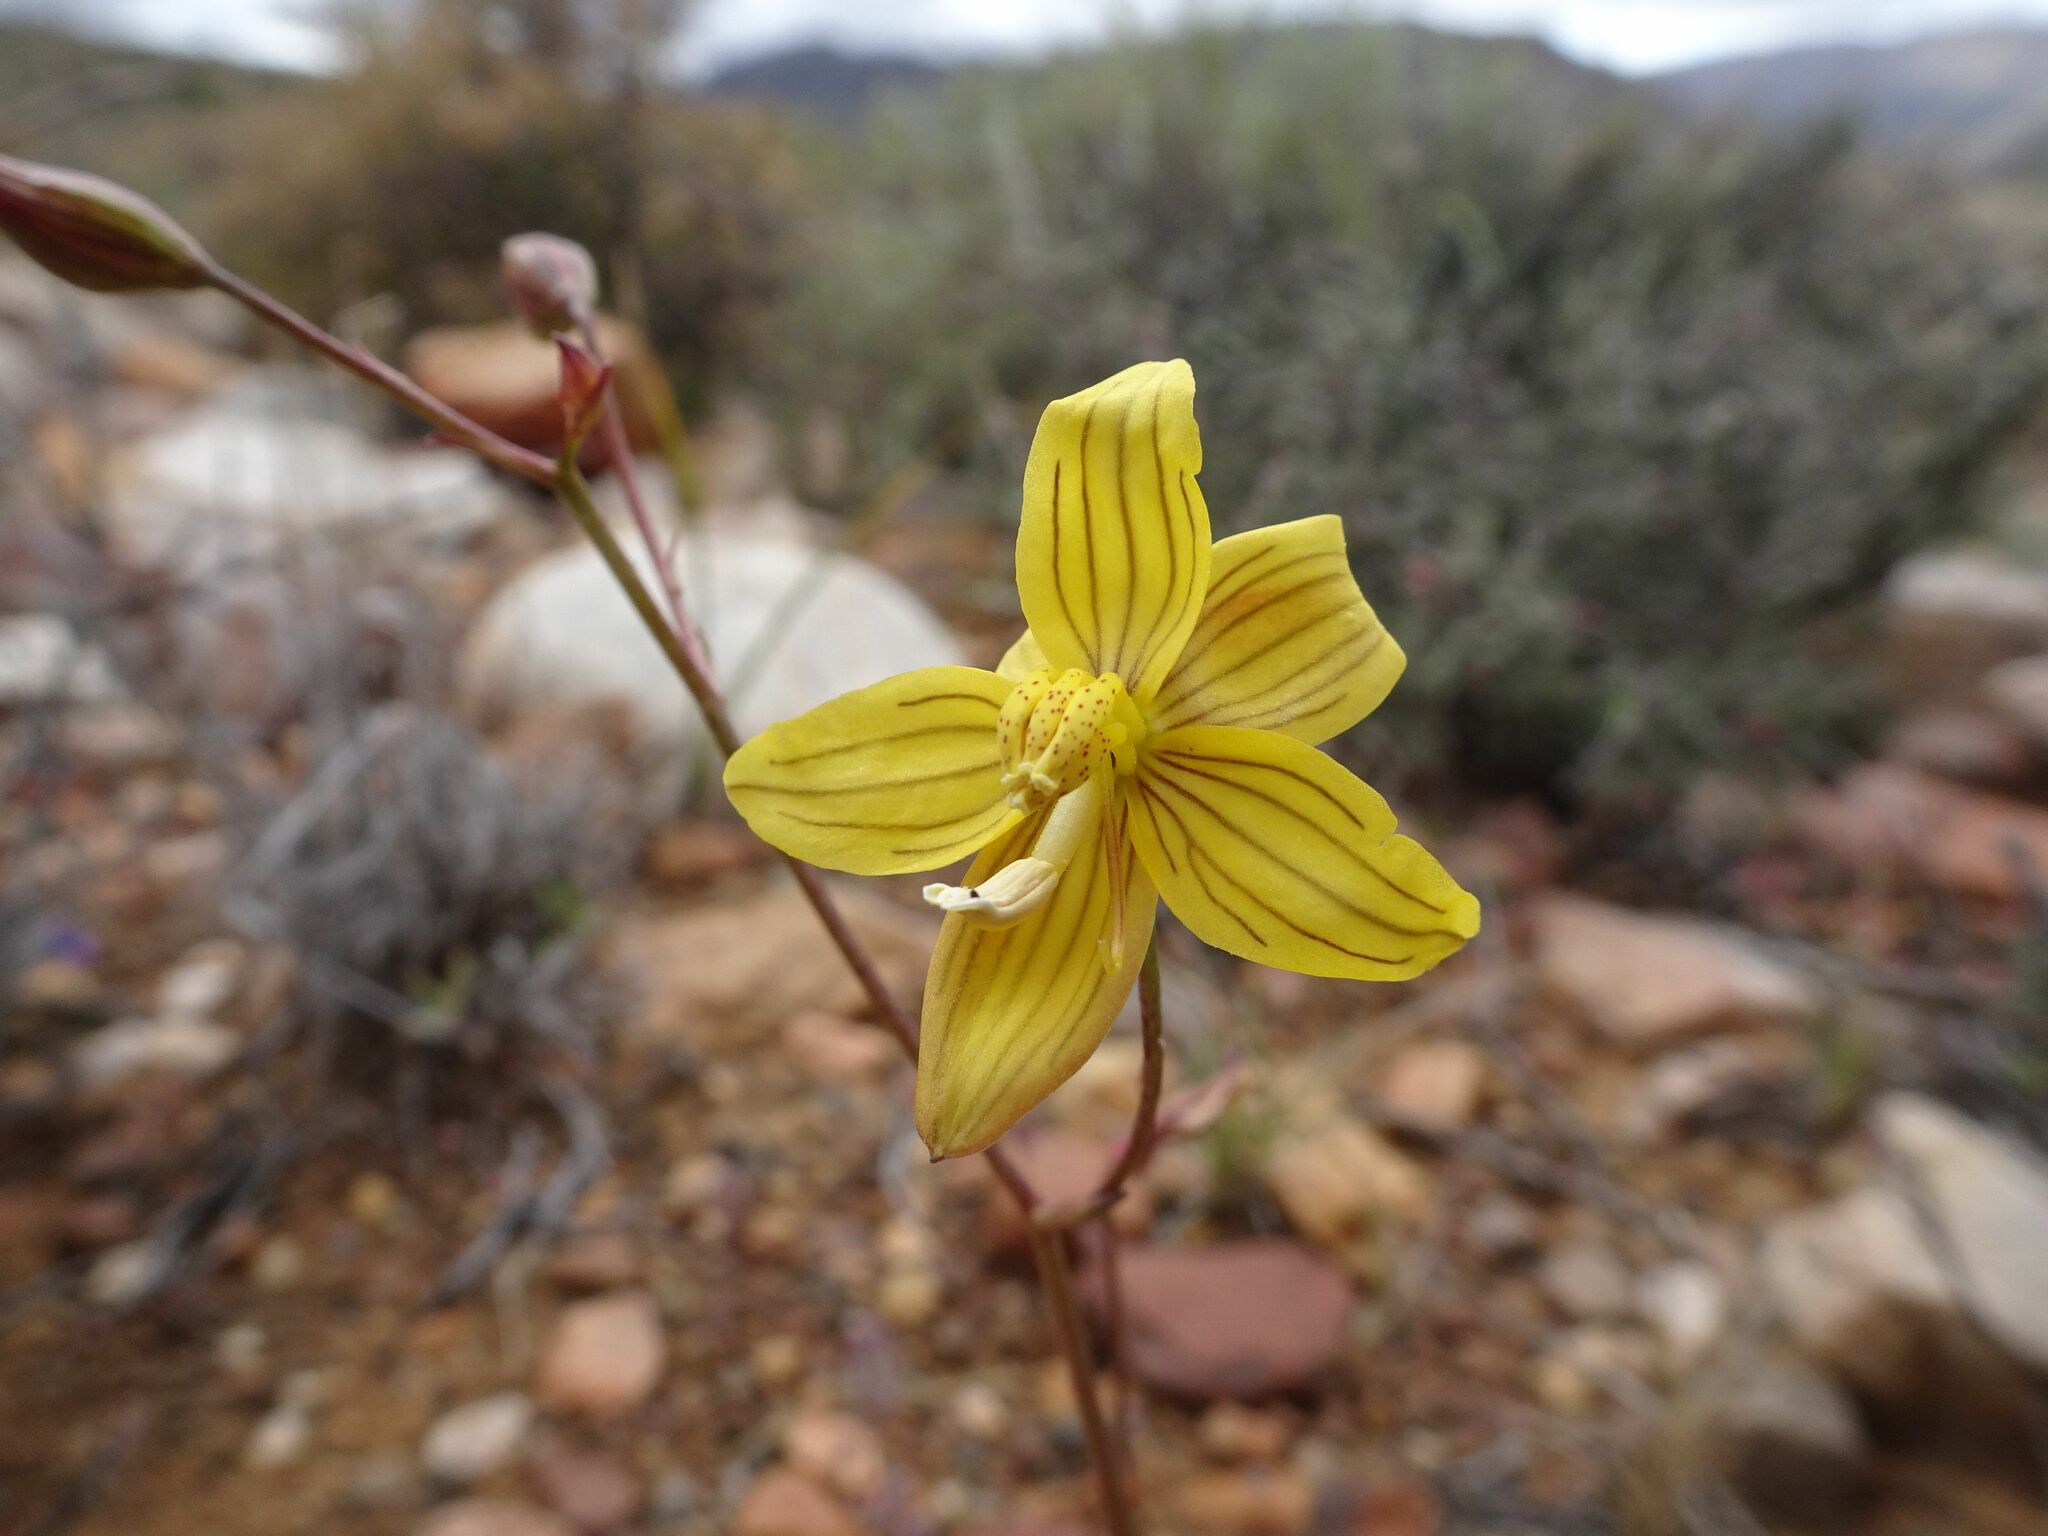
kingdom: Plantae
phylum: Tracheophyta
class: Liliopsida
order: Asparagales
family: Tecophilaeaceae
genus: Cyanella
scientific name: Cyanella lutea
